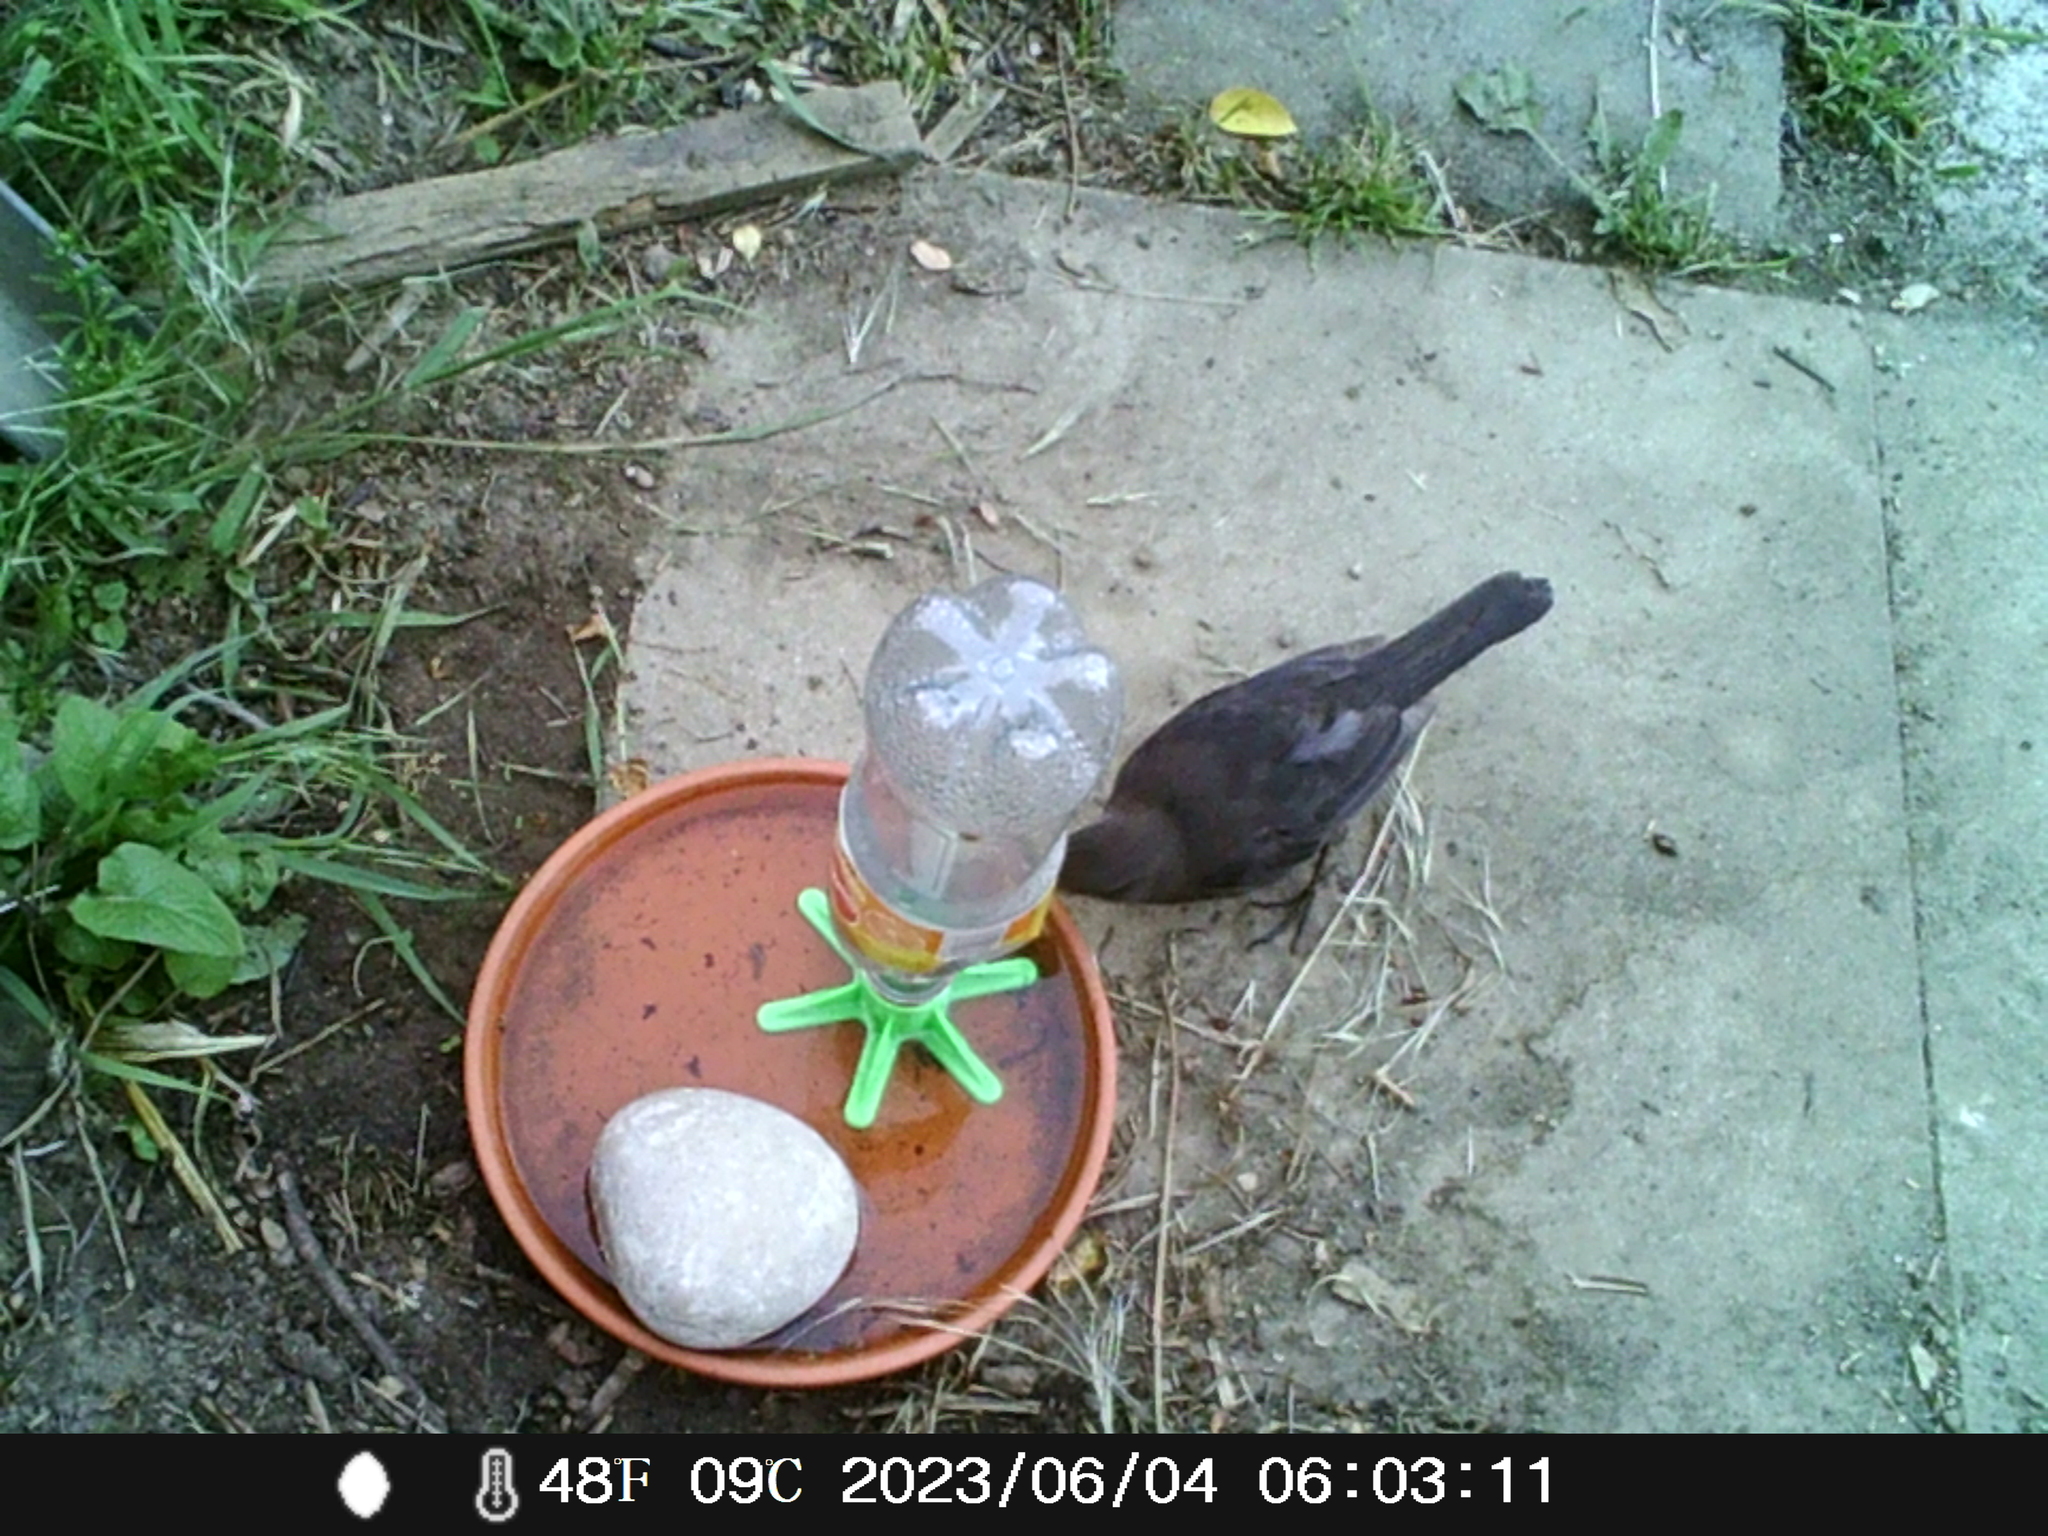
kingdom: Animalia
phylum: Chordata
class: Aves
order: Passeriformes
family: Turdidae
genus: Turdus
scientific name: Turdus merula
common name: Common blackbird
